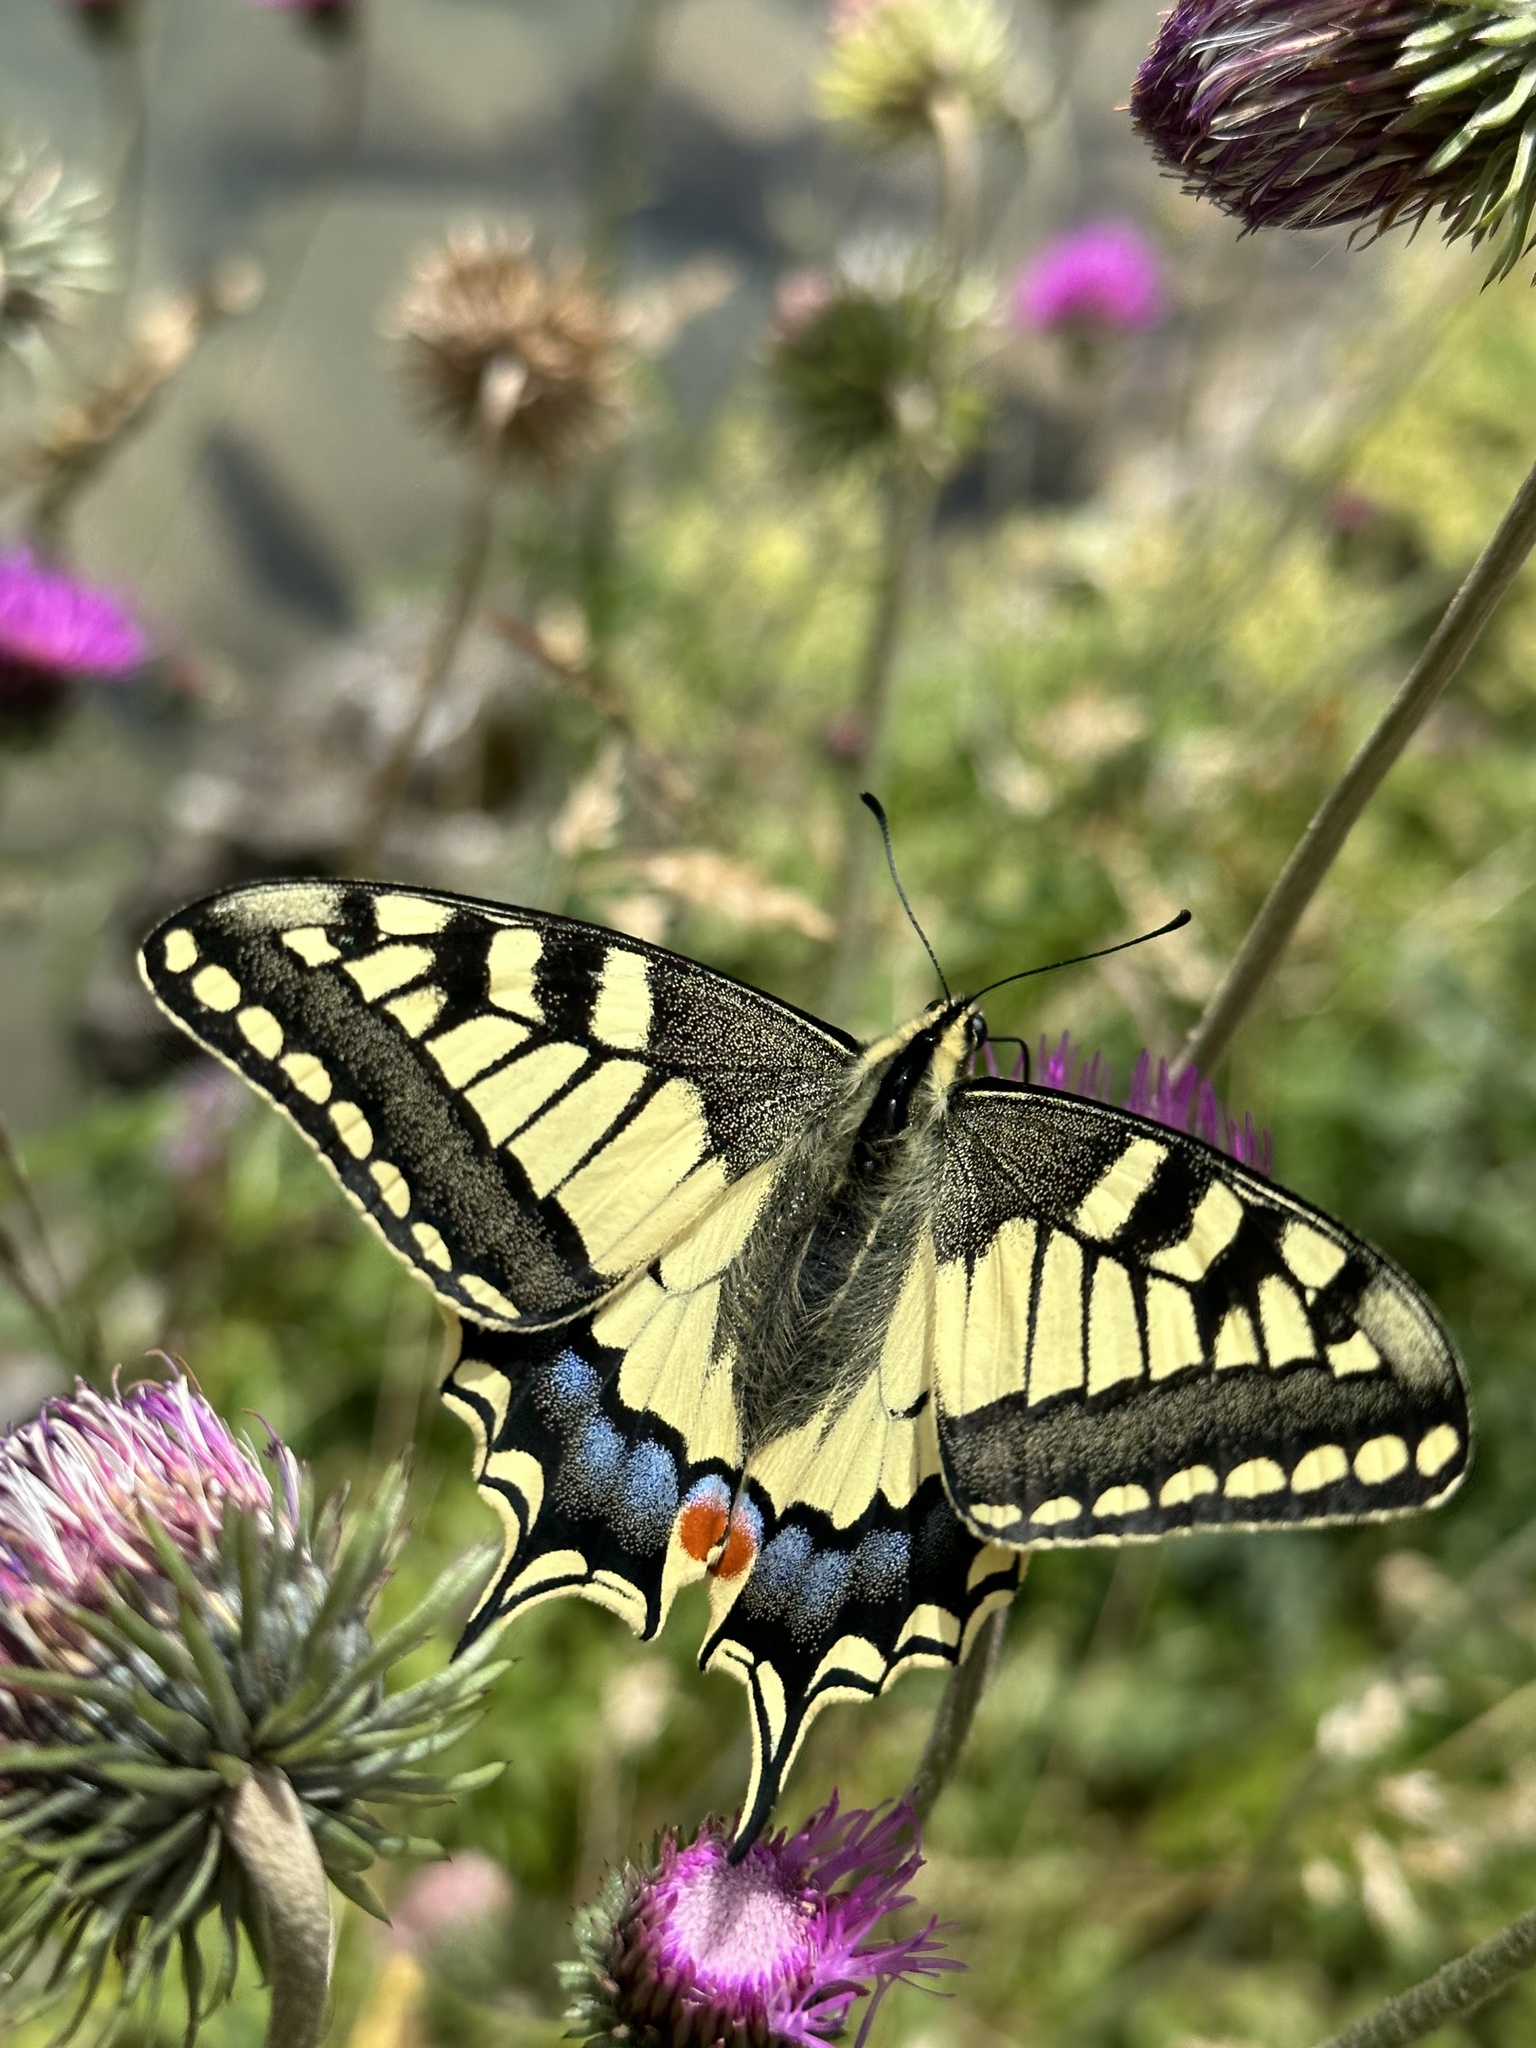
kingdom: Animalia
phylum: Arthropoda
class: Insecta
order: Lepidoptera
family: Papilionidae
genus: Papilio
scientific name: Papilio machaon
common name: Swallowtail
